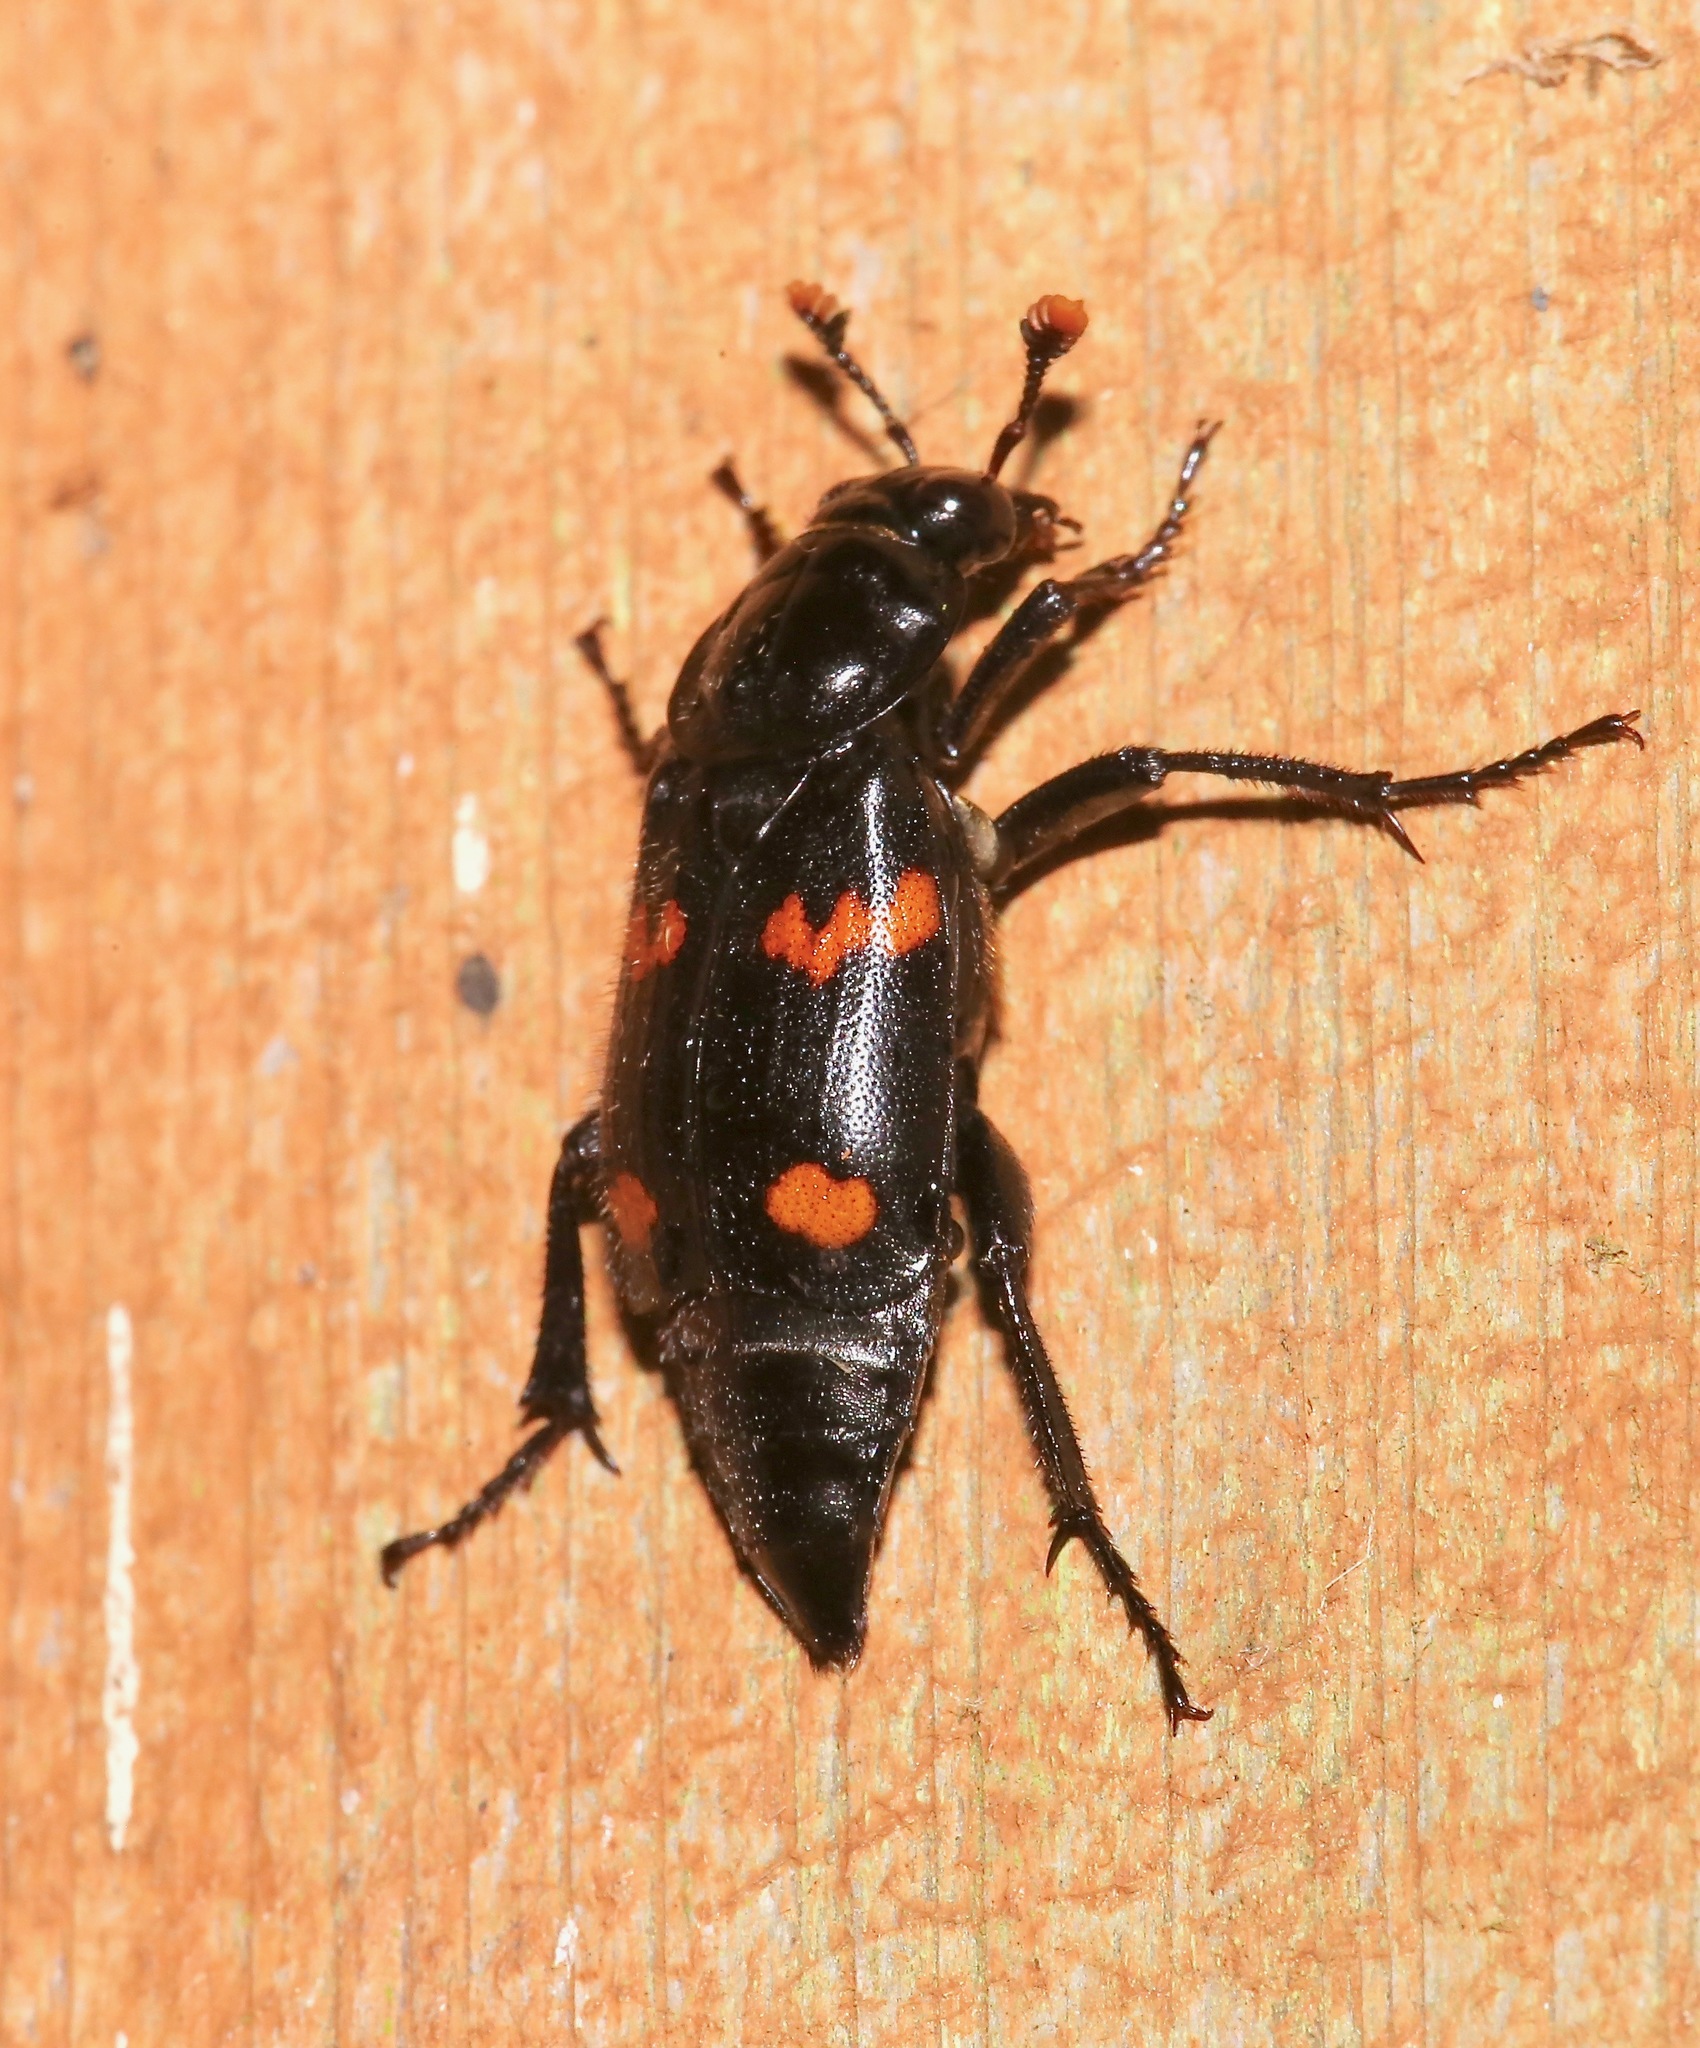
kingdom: Animalia
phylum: Arthropoda
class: Insecta
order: Coleoptera
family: Staphylinidae
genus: Nicrophorus
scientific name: Nicrophorus orbicollis
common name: Roundneck sexton beetle
